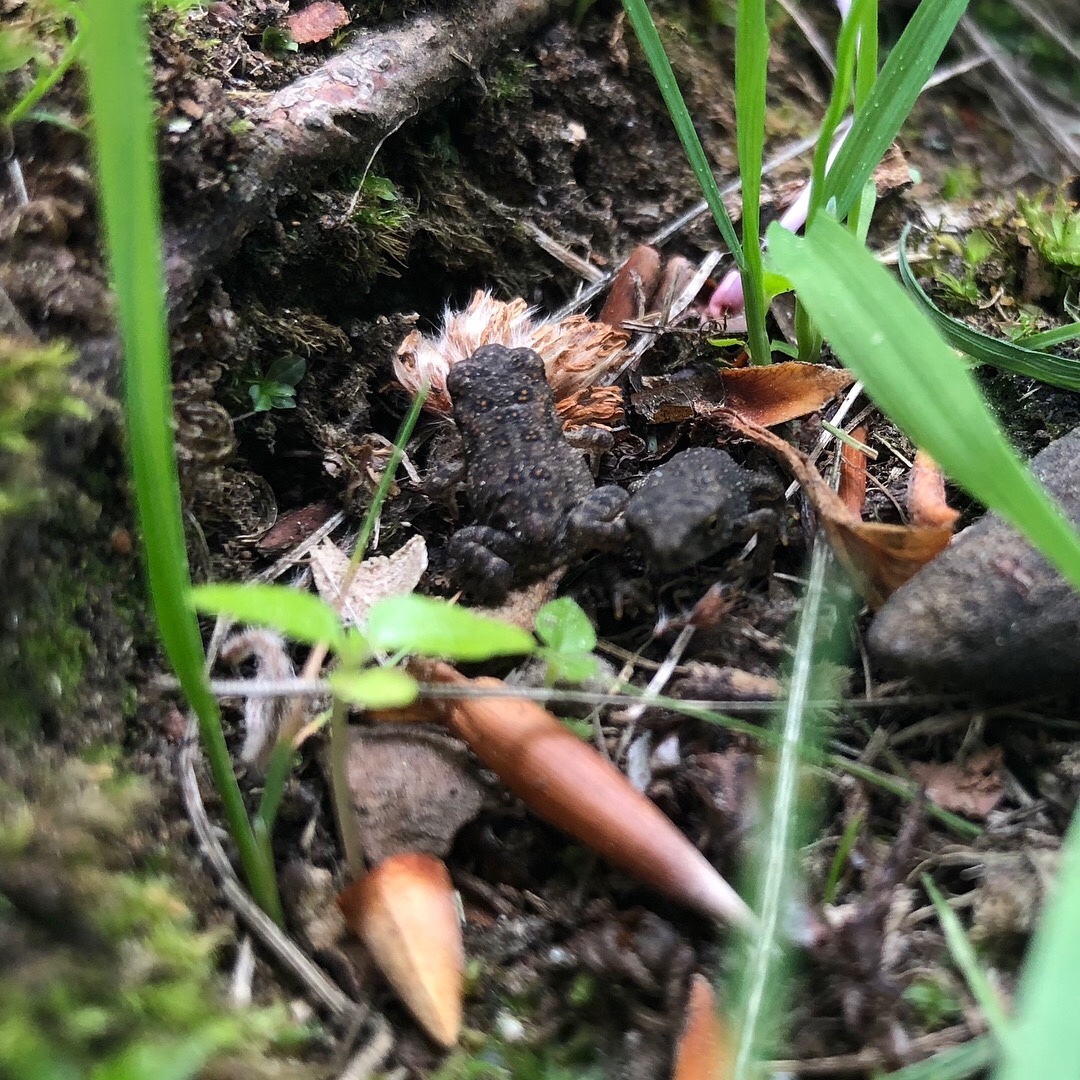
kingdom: Animalia
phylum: Chordata
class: Amphibia
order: Anura
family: Bufonidae
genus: Anaxyrus
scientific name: Anaxyrus
